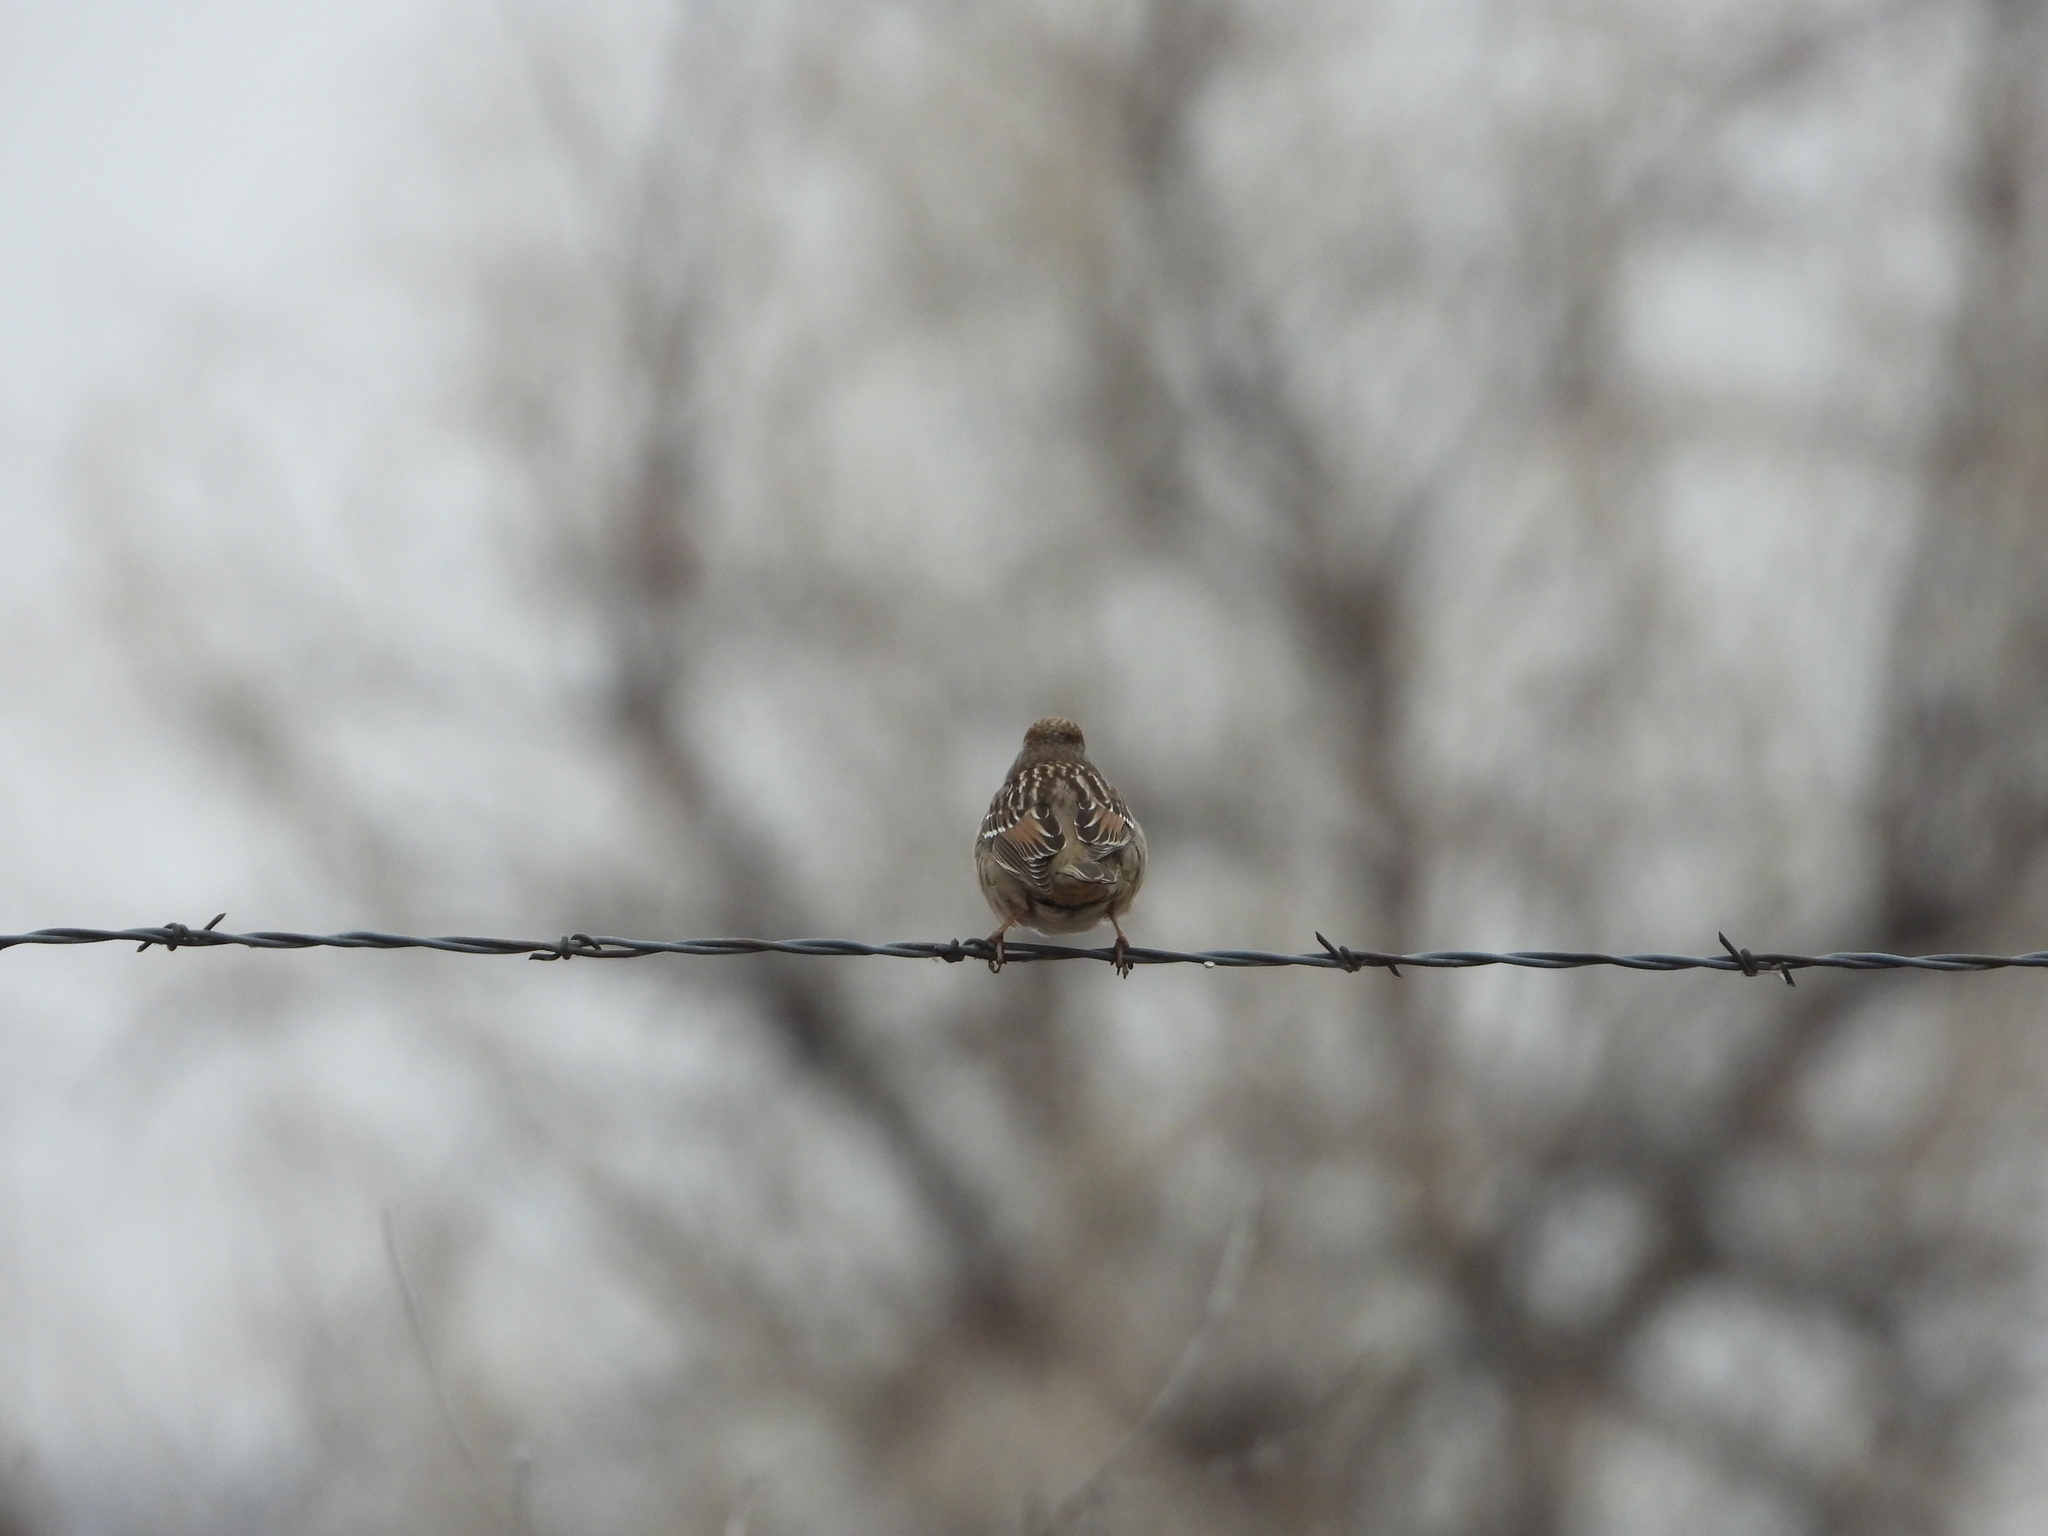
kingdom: Animalia
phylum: Chordata
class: Aves
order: Passeriformes
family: Passerellidae
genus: Zonotrichia
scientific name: Zonotrichia leucophrys
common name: White-crowned sparrow
